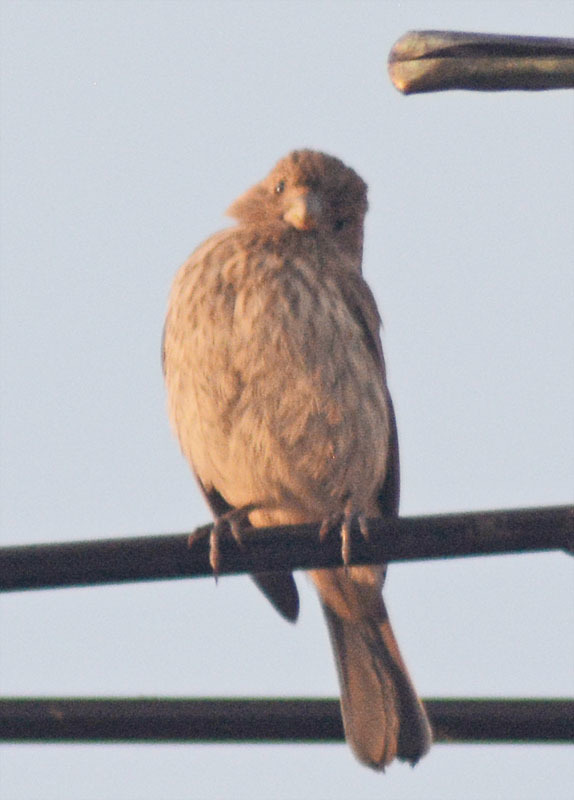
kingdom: Animalia
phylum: Chordata
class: Aves
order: Passeriformes
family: Fringillidae
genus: Haemorhous
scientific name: Haemorhous mexicanus
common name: House finch
